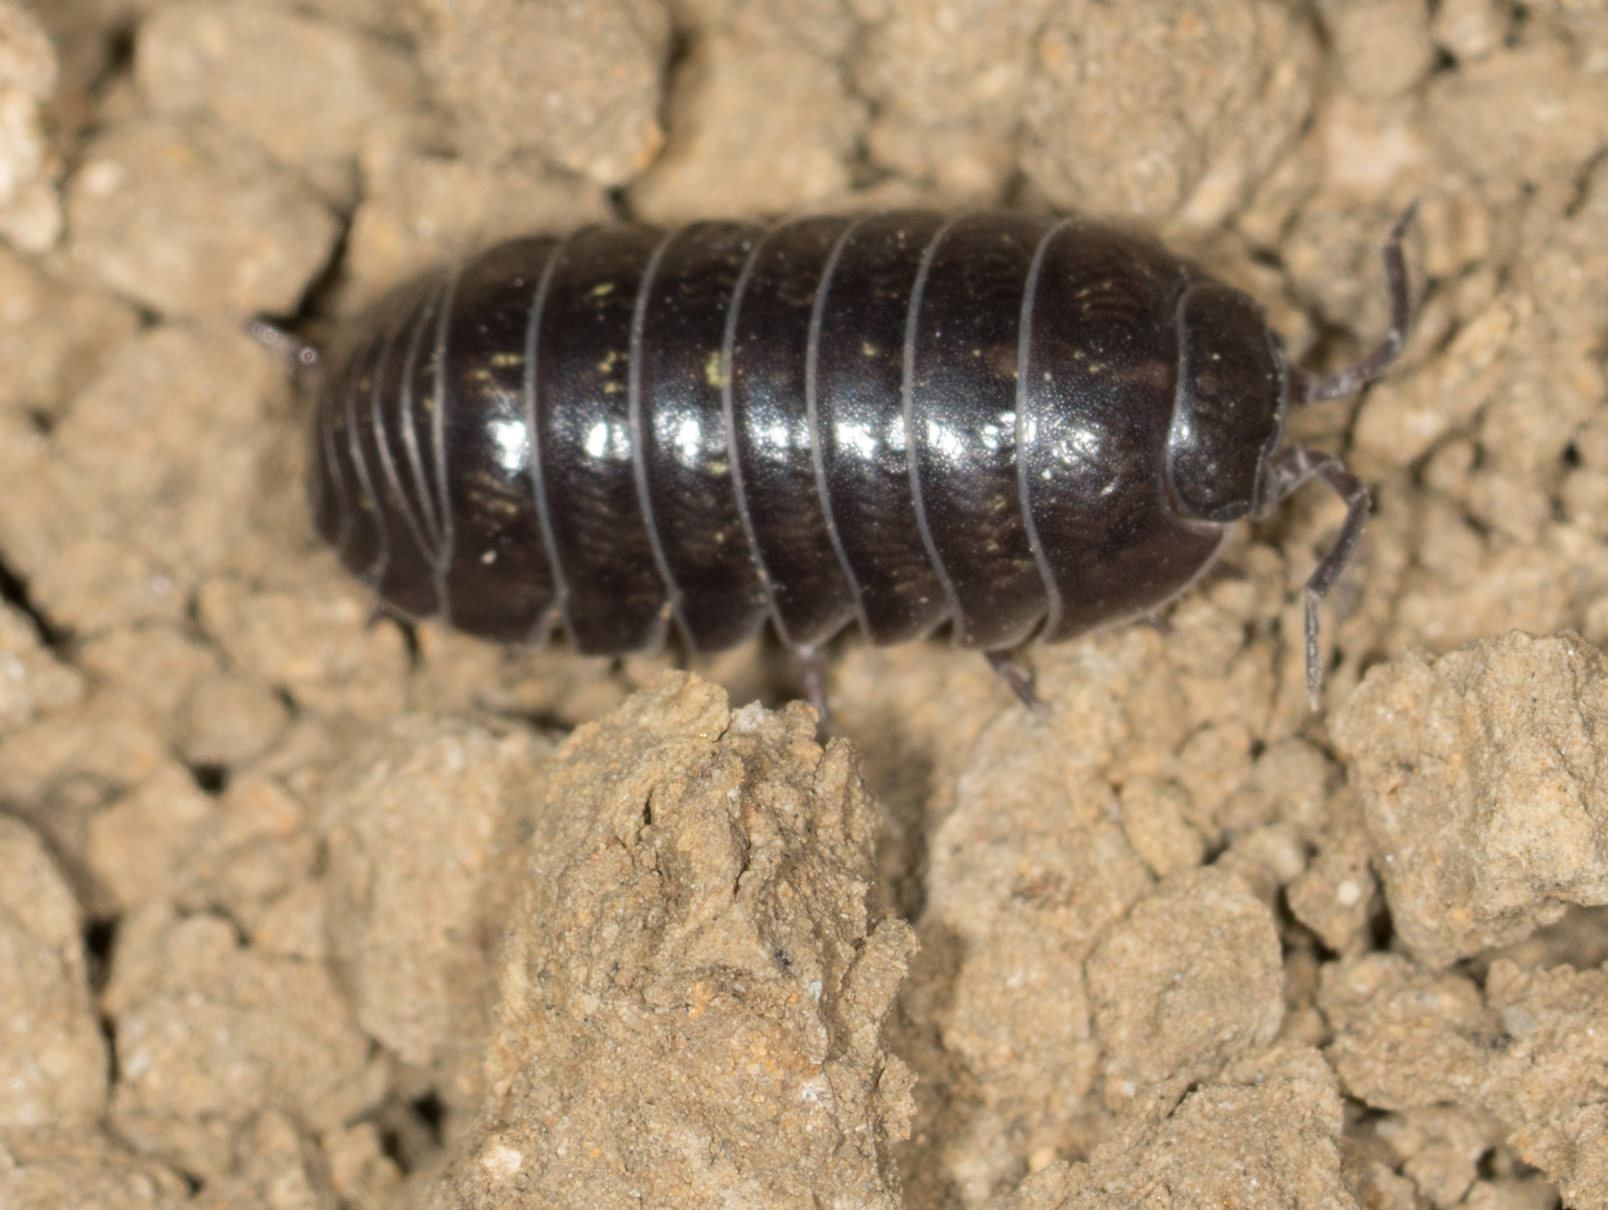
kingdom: Animalia
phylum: Arthropoda
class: Malacostraca
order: Isopoda
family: Armadillidiidae
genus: Armadillidium
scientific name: Armadillidium vulgare
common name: Common pill woodlouse
